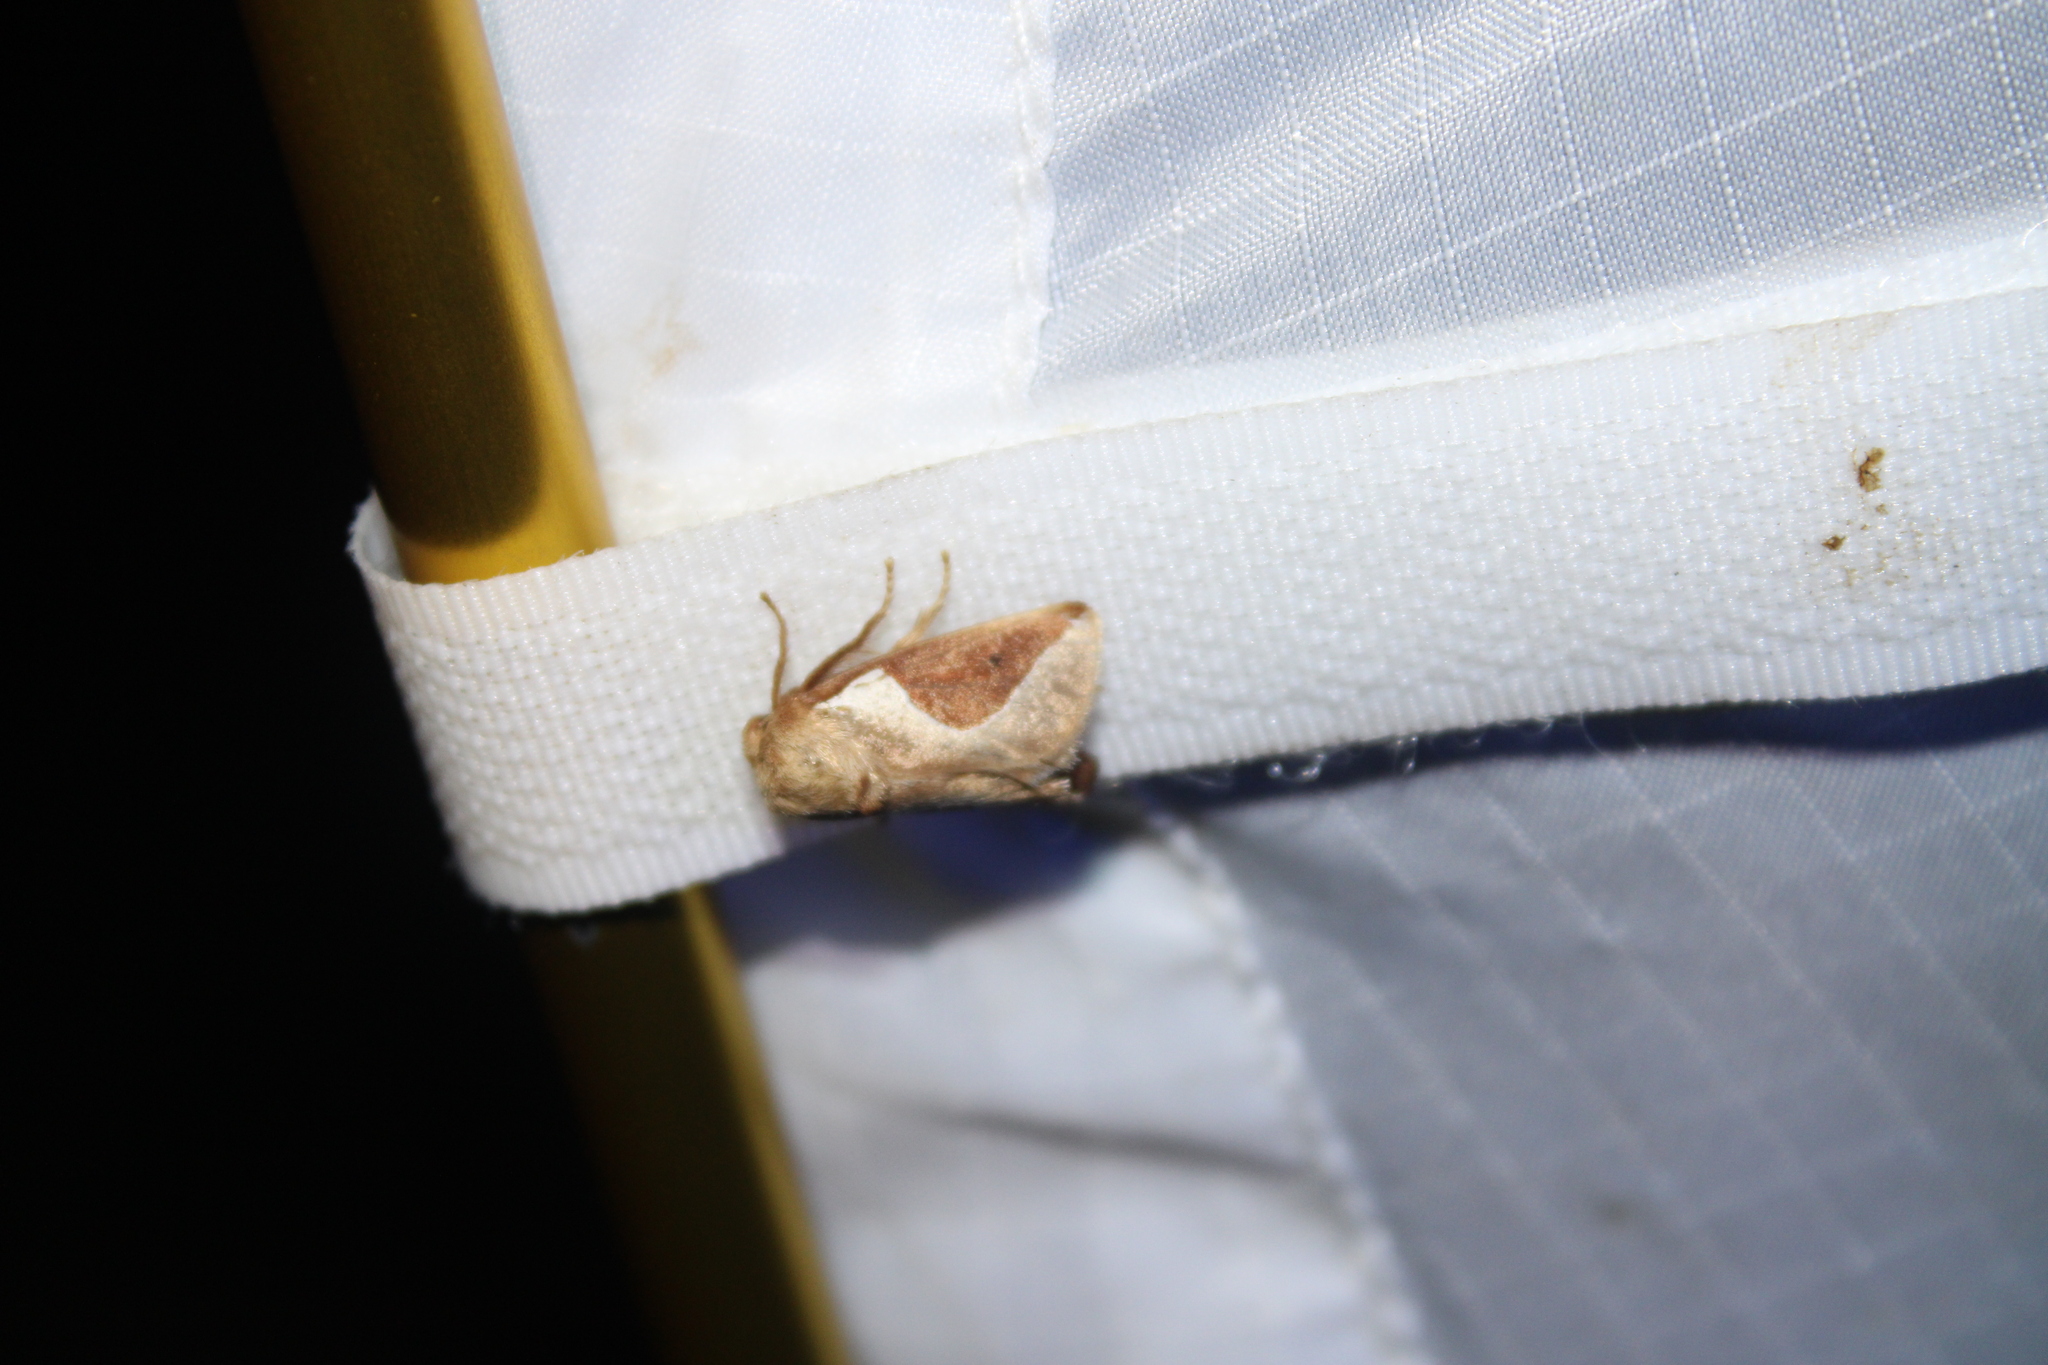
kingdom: Animalia
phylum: Arthropoda
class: Insecta
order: Lepidoptera
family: Limacodidae
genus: Prolimacodes
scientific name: Prolimacodes badia
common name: Skiff moth
